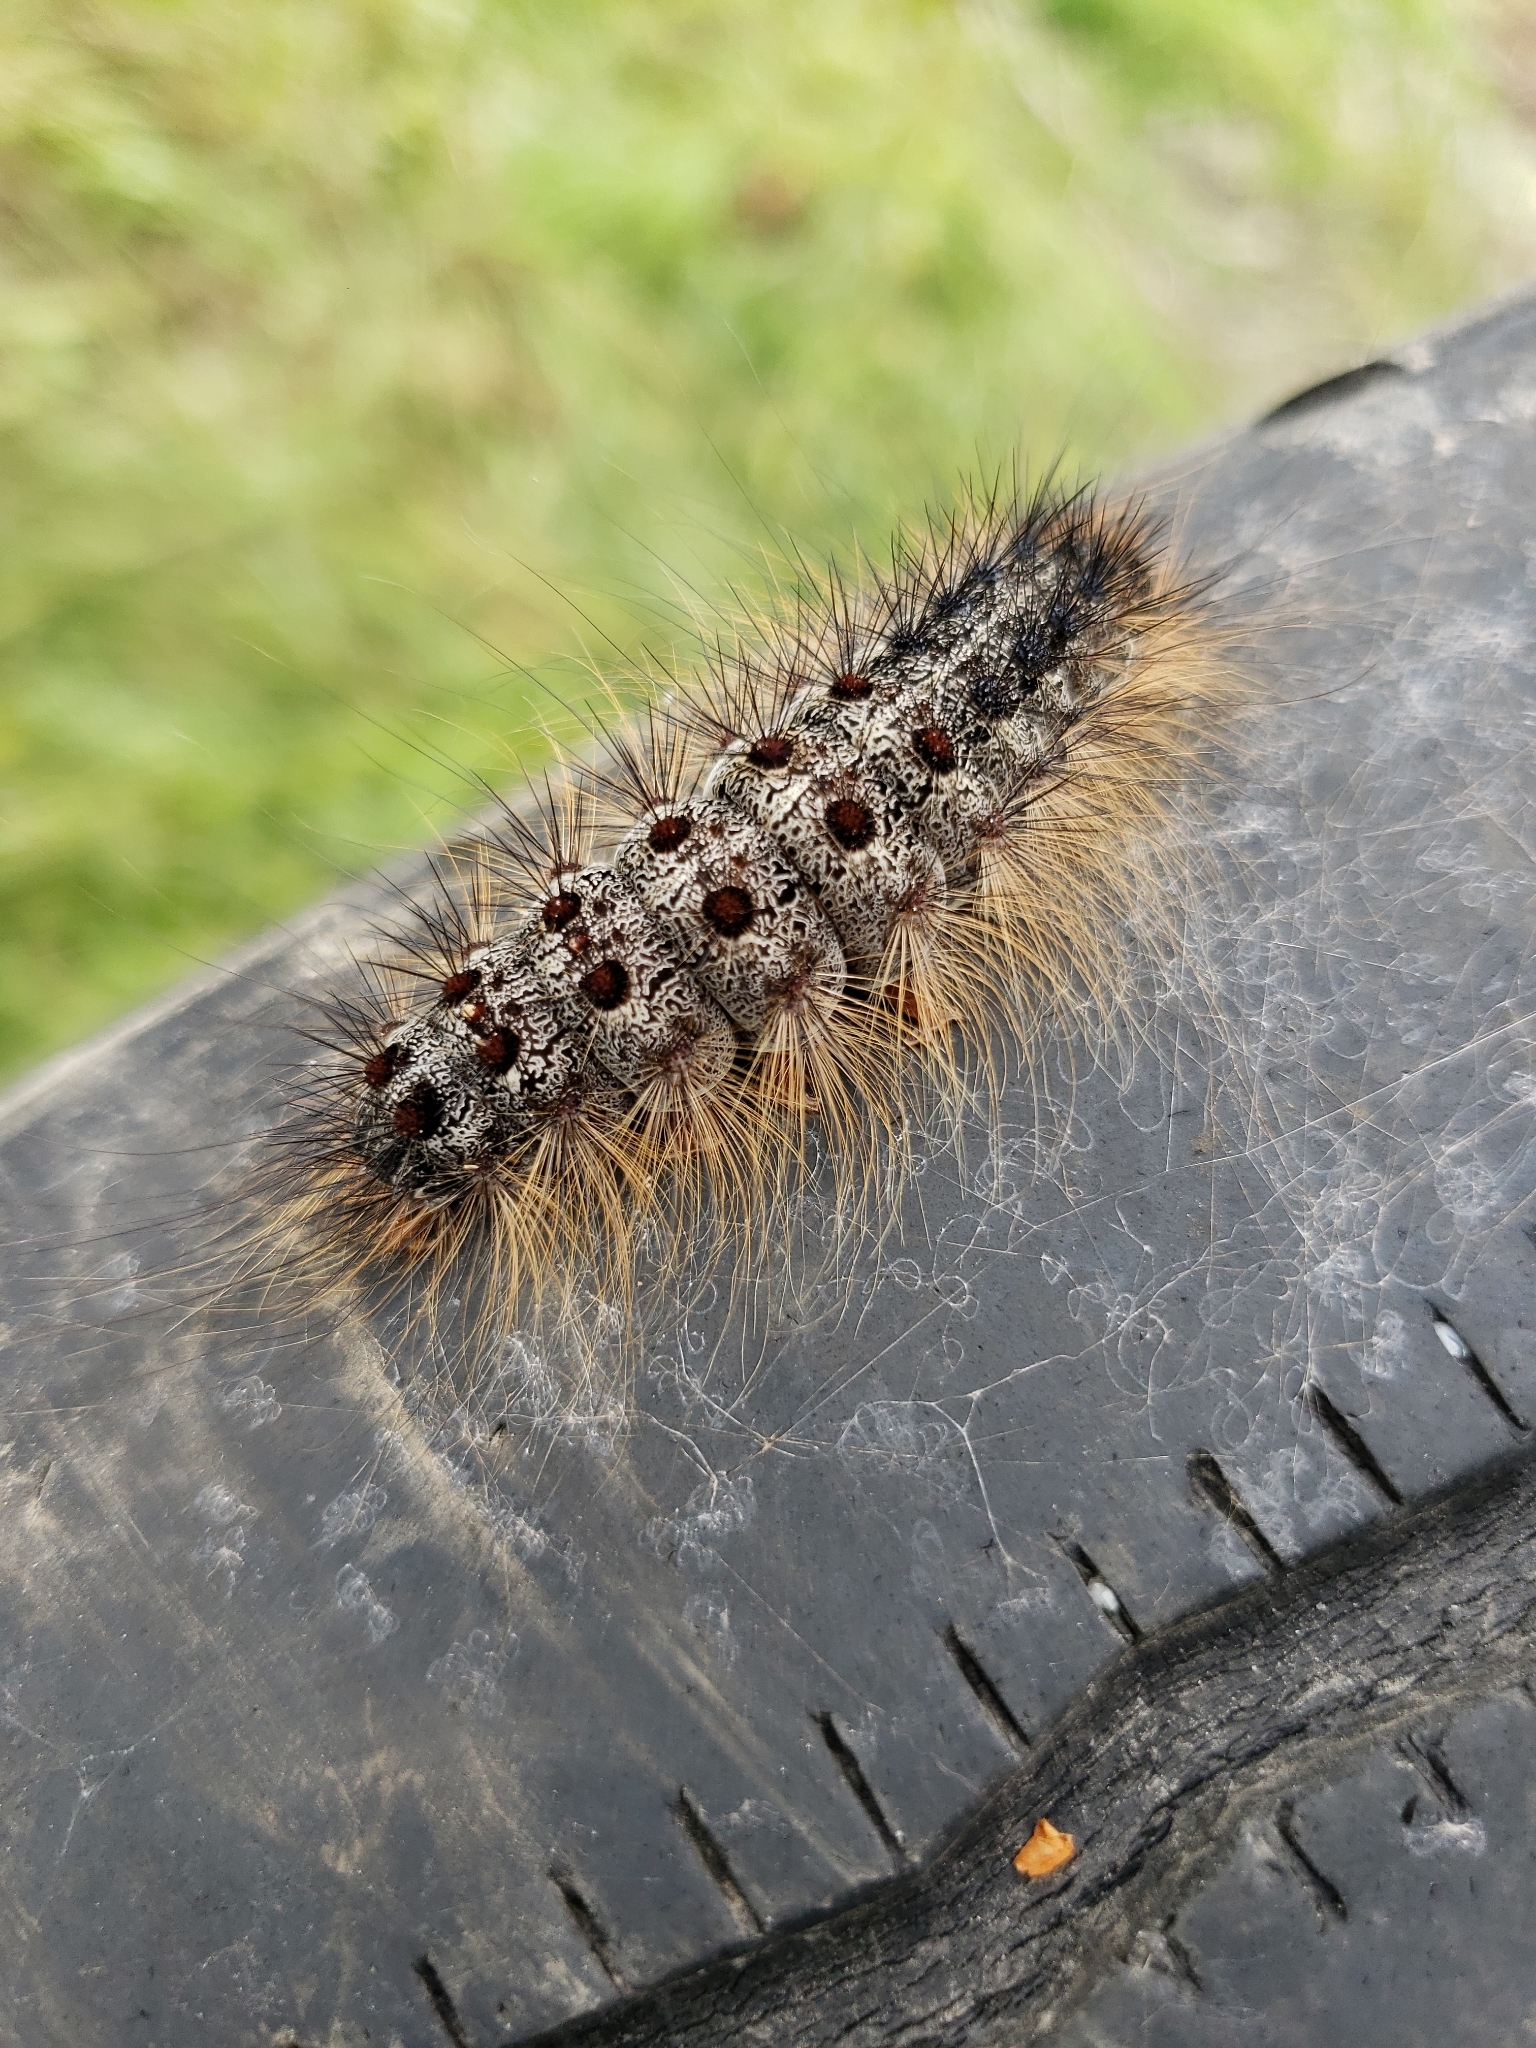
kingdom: Animalia
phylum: Arthropoda
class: Insecta
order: Lepidoptera
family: Erebidae
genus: Lymantria
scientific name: Lymantria dispar
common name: Gypsy moth
